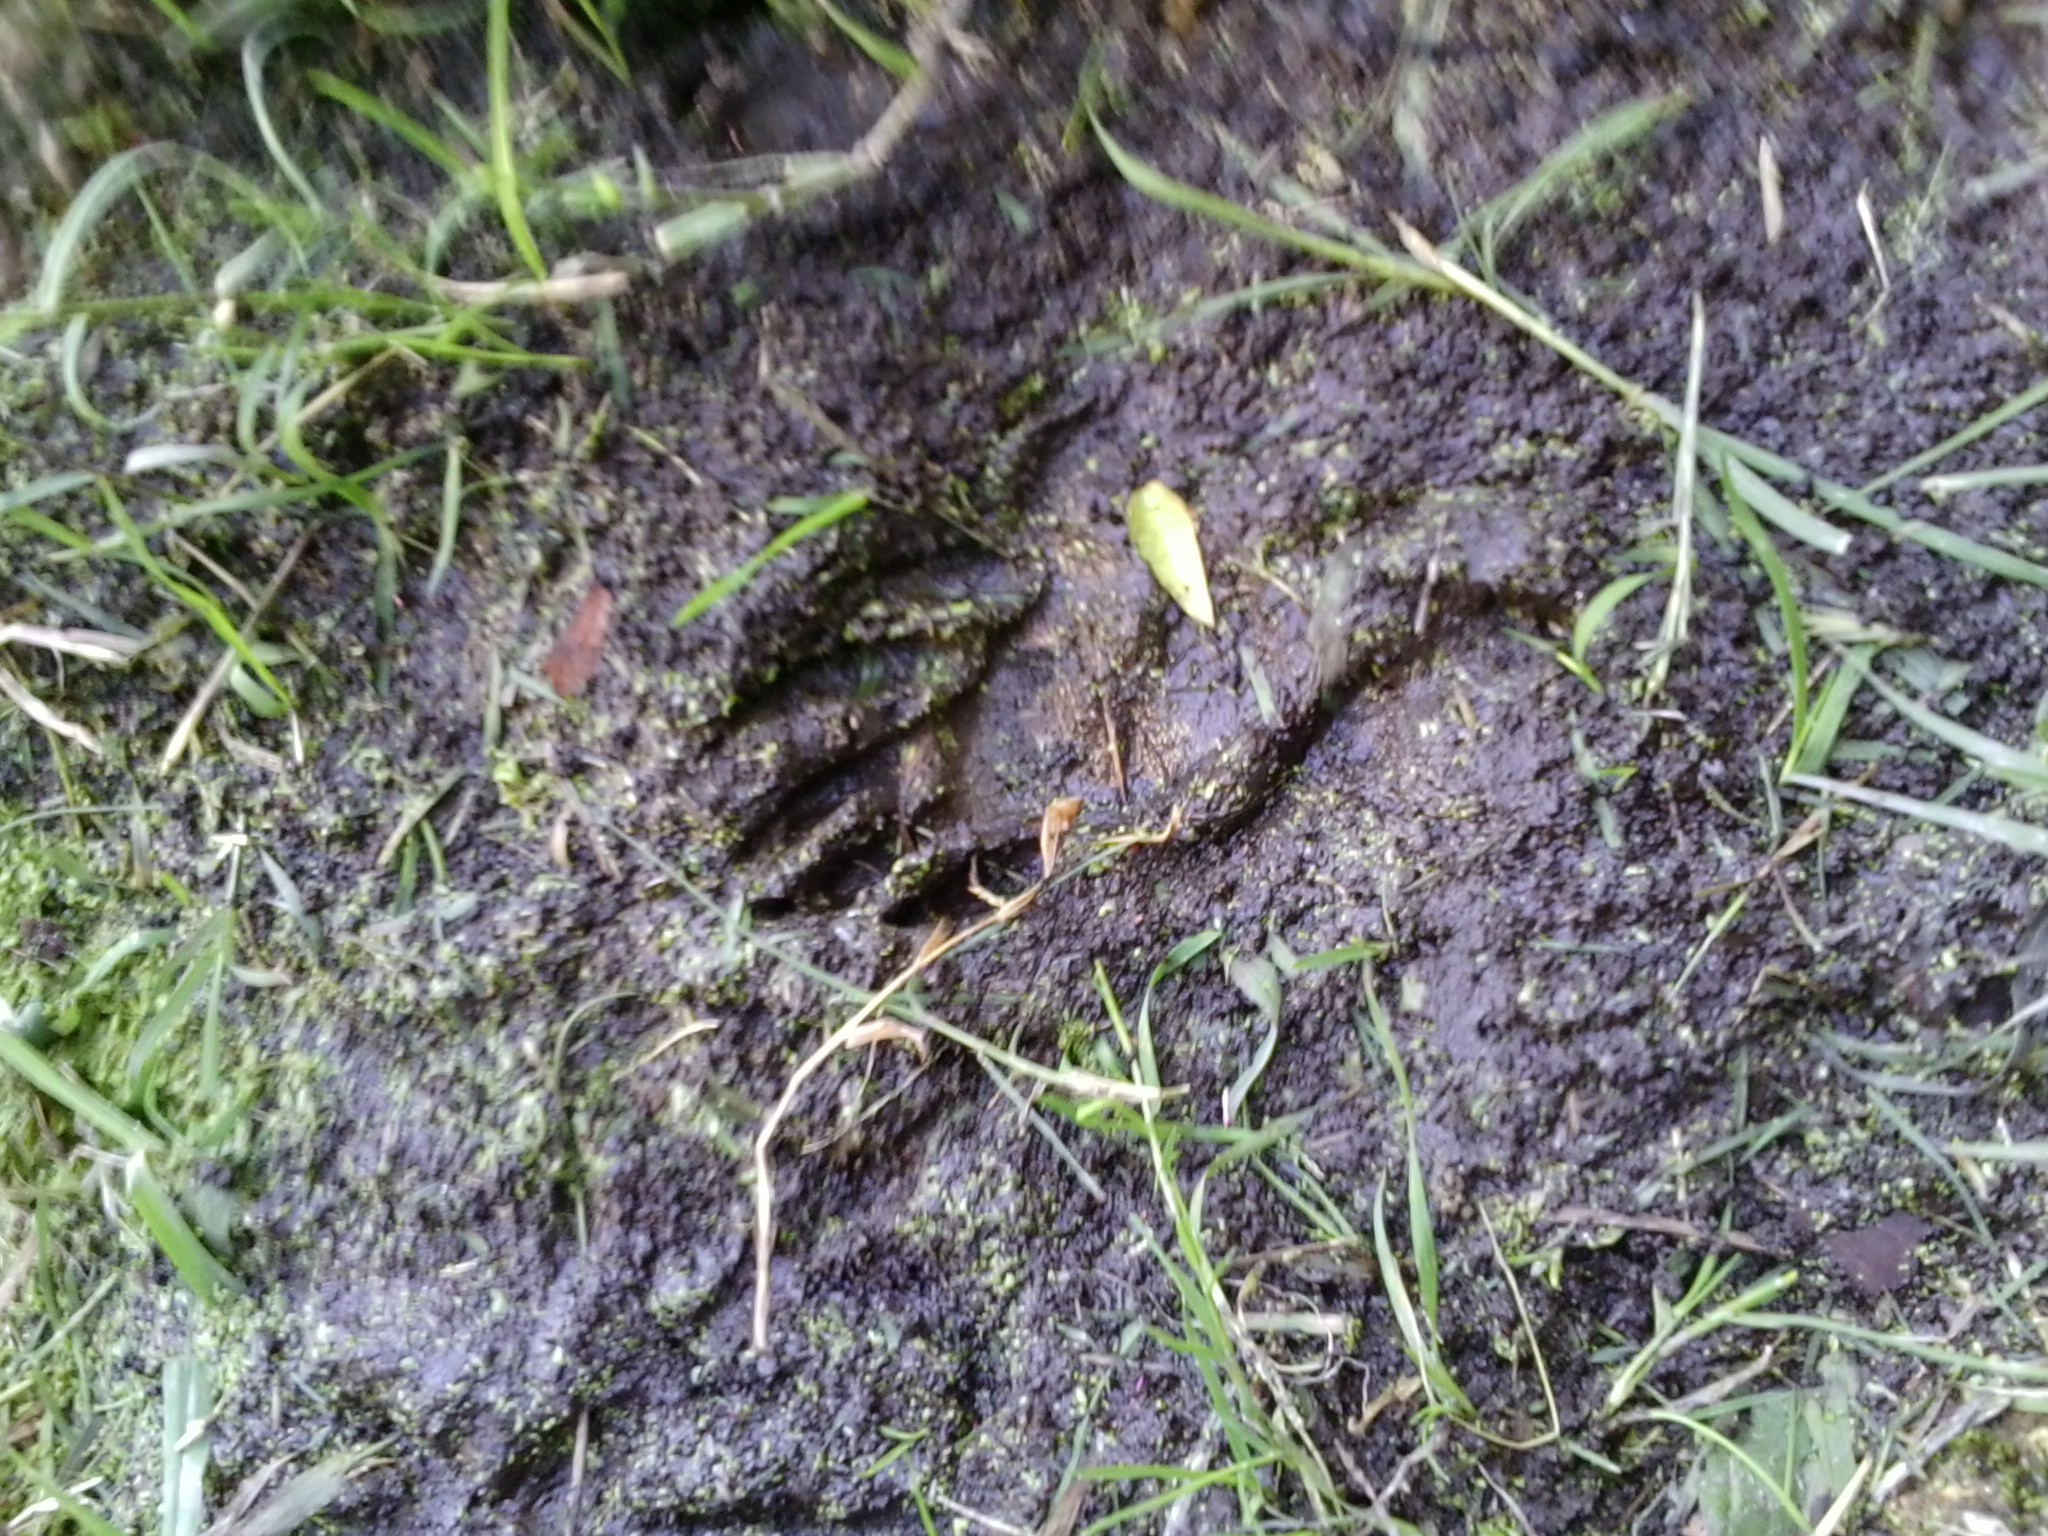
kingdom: Animalia
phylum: Chordata
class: Mammalia
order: Carnivora
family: Procyonidae
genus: Procyon
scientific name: Procyon lotor
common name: Raccoon
